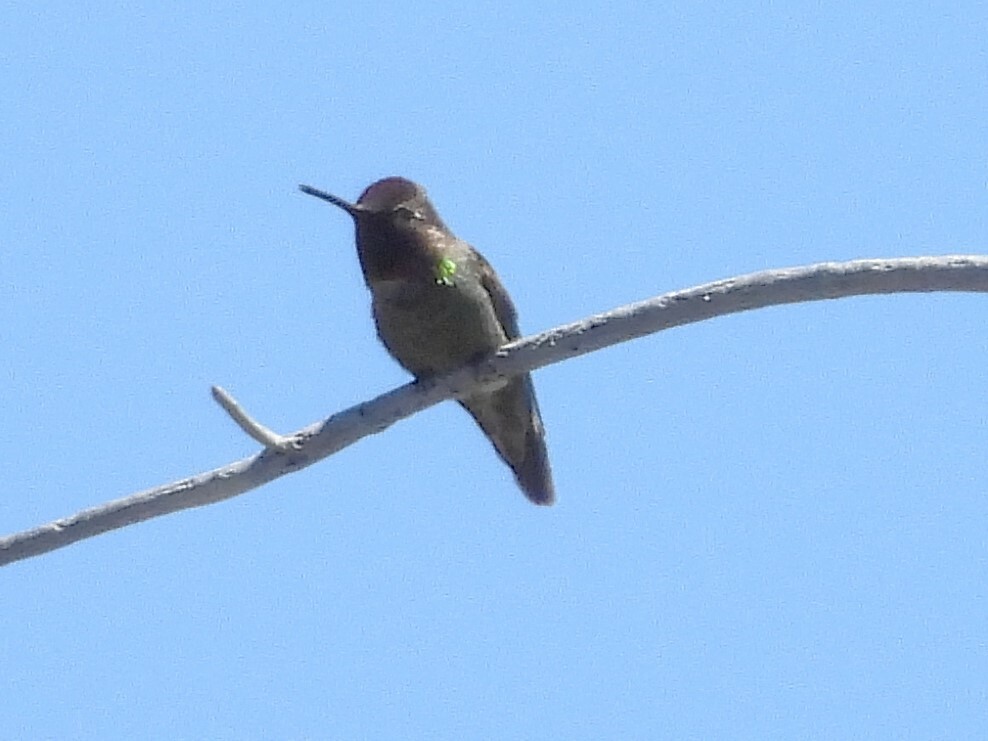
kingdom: Animalia
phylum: Chordata
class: Aves
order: Apodiformes
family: Trochilidae
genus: Calypte
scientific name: Calypte anna
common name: Anna's hummingbird
